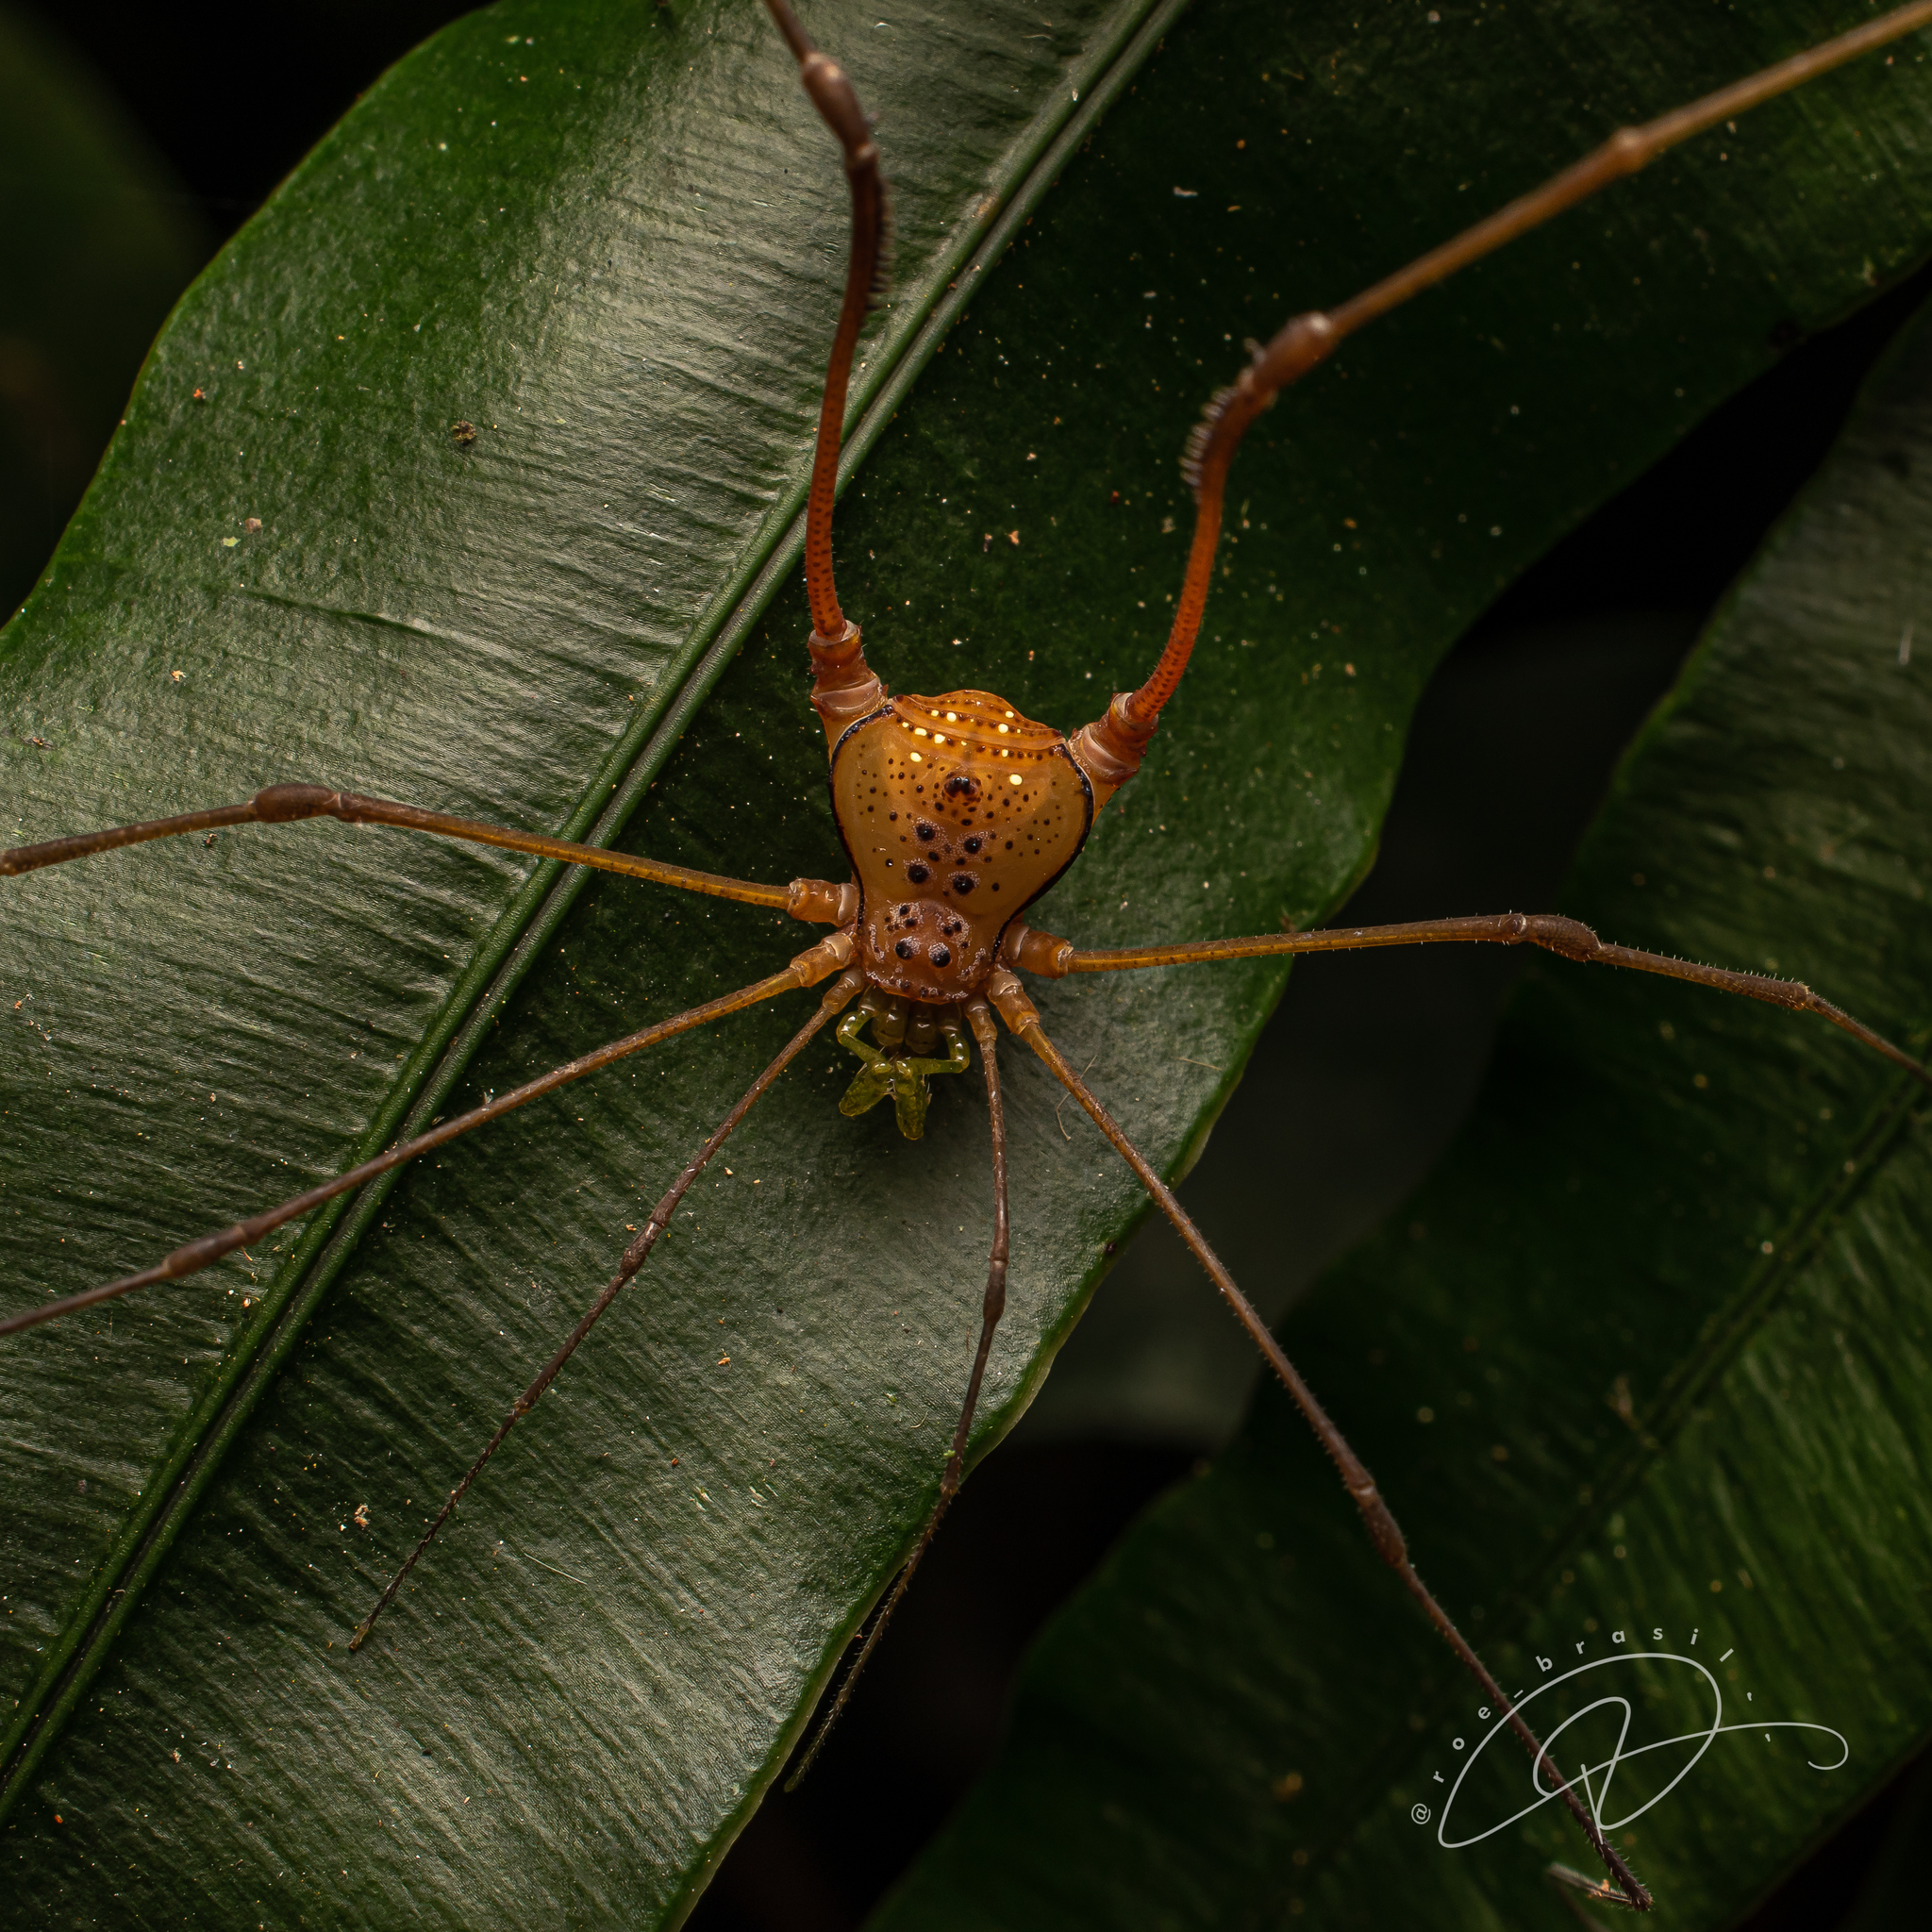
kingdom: Animalia
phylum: Arthropoda
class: Arachnida
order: Opiliones
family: Gonyleptidae
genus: Pristocnemus
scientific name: Pristocnemus pustulatus
